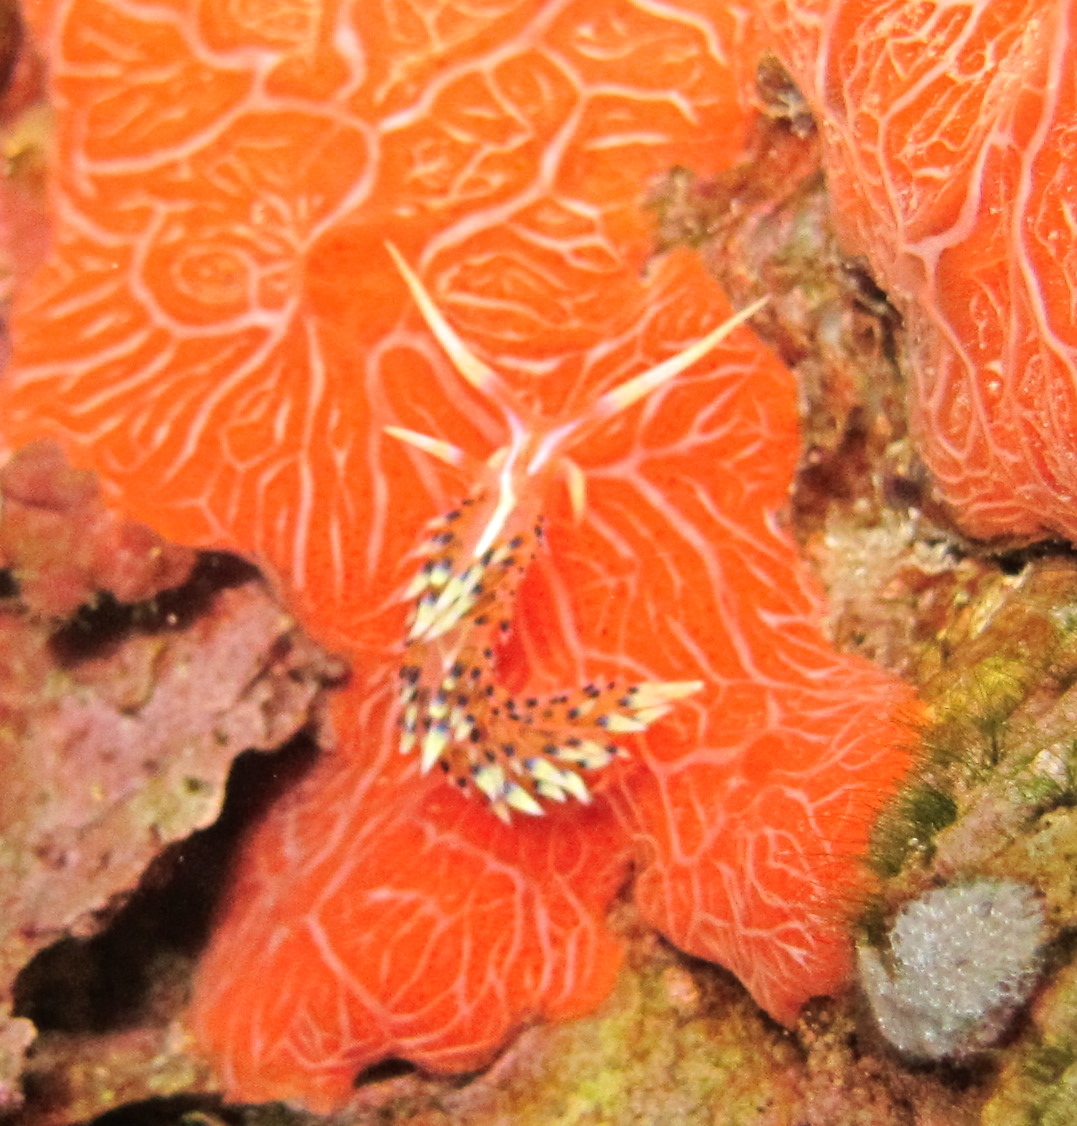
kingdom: Animalia
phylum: Mollusca
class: Gastropoda
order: Nudibranchia
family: Facelinidae
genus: Caloria
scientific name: Caloria indica
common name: Sea slug
